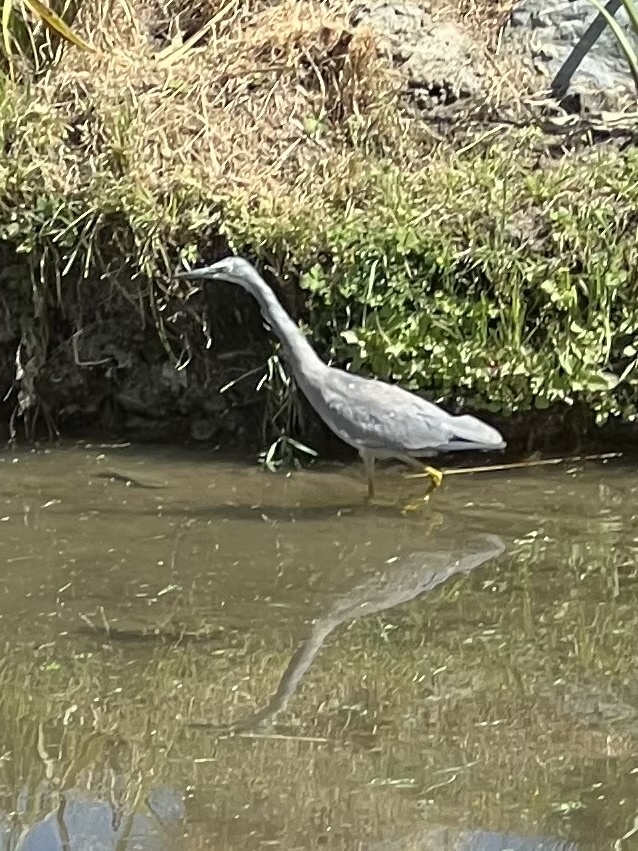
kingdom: Animalia
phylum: Chordata
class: Aves
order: Pelecaniformes
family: Ardeidae
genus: Egretta
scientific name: Egretta novaehollandiae
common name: White-faced heron
